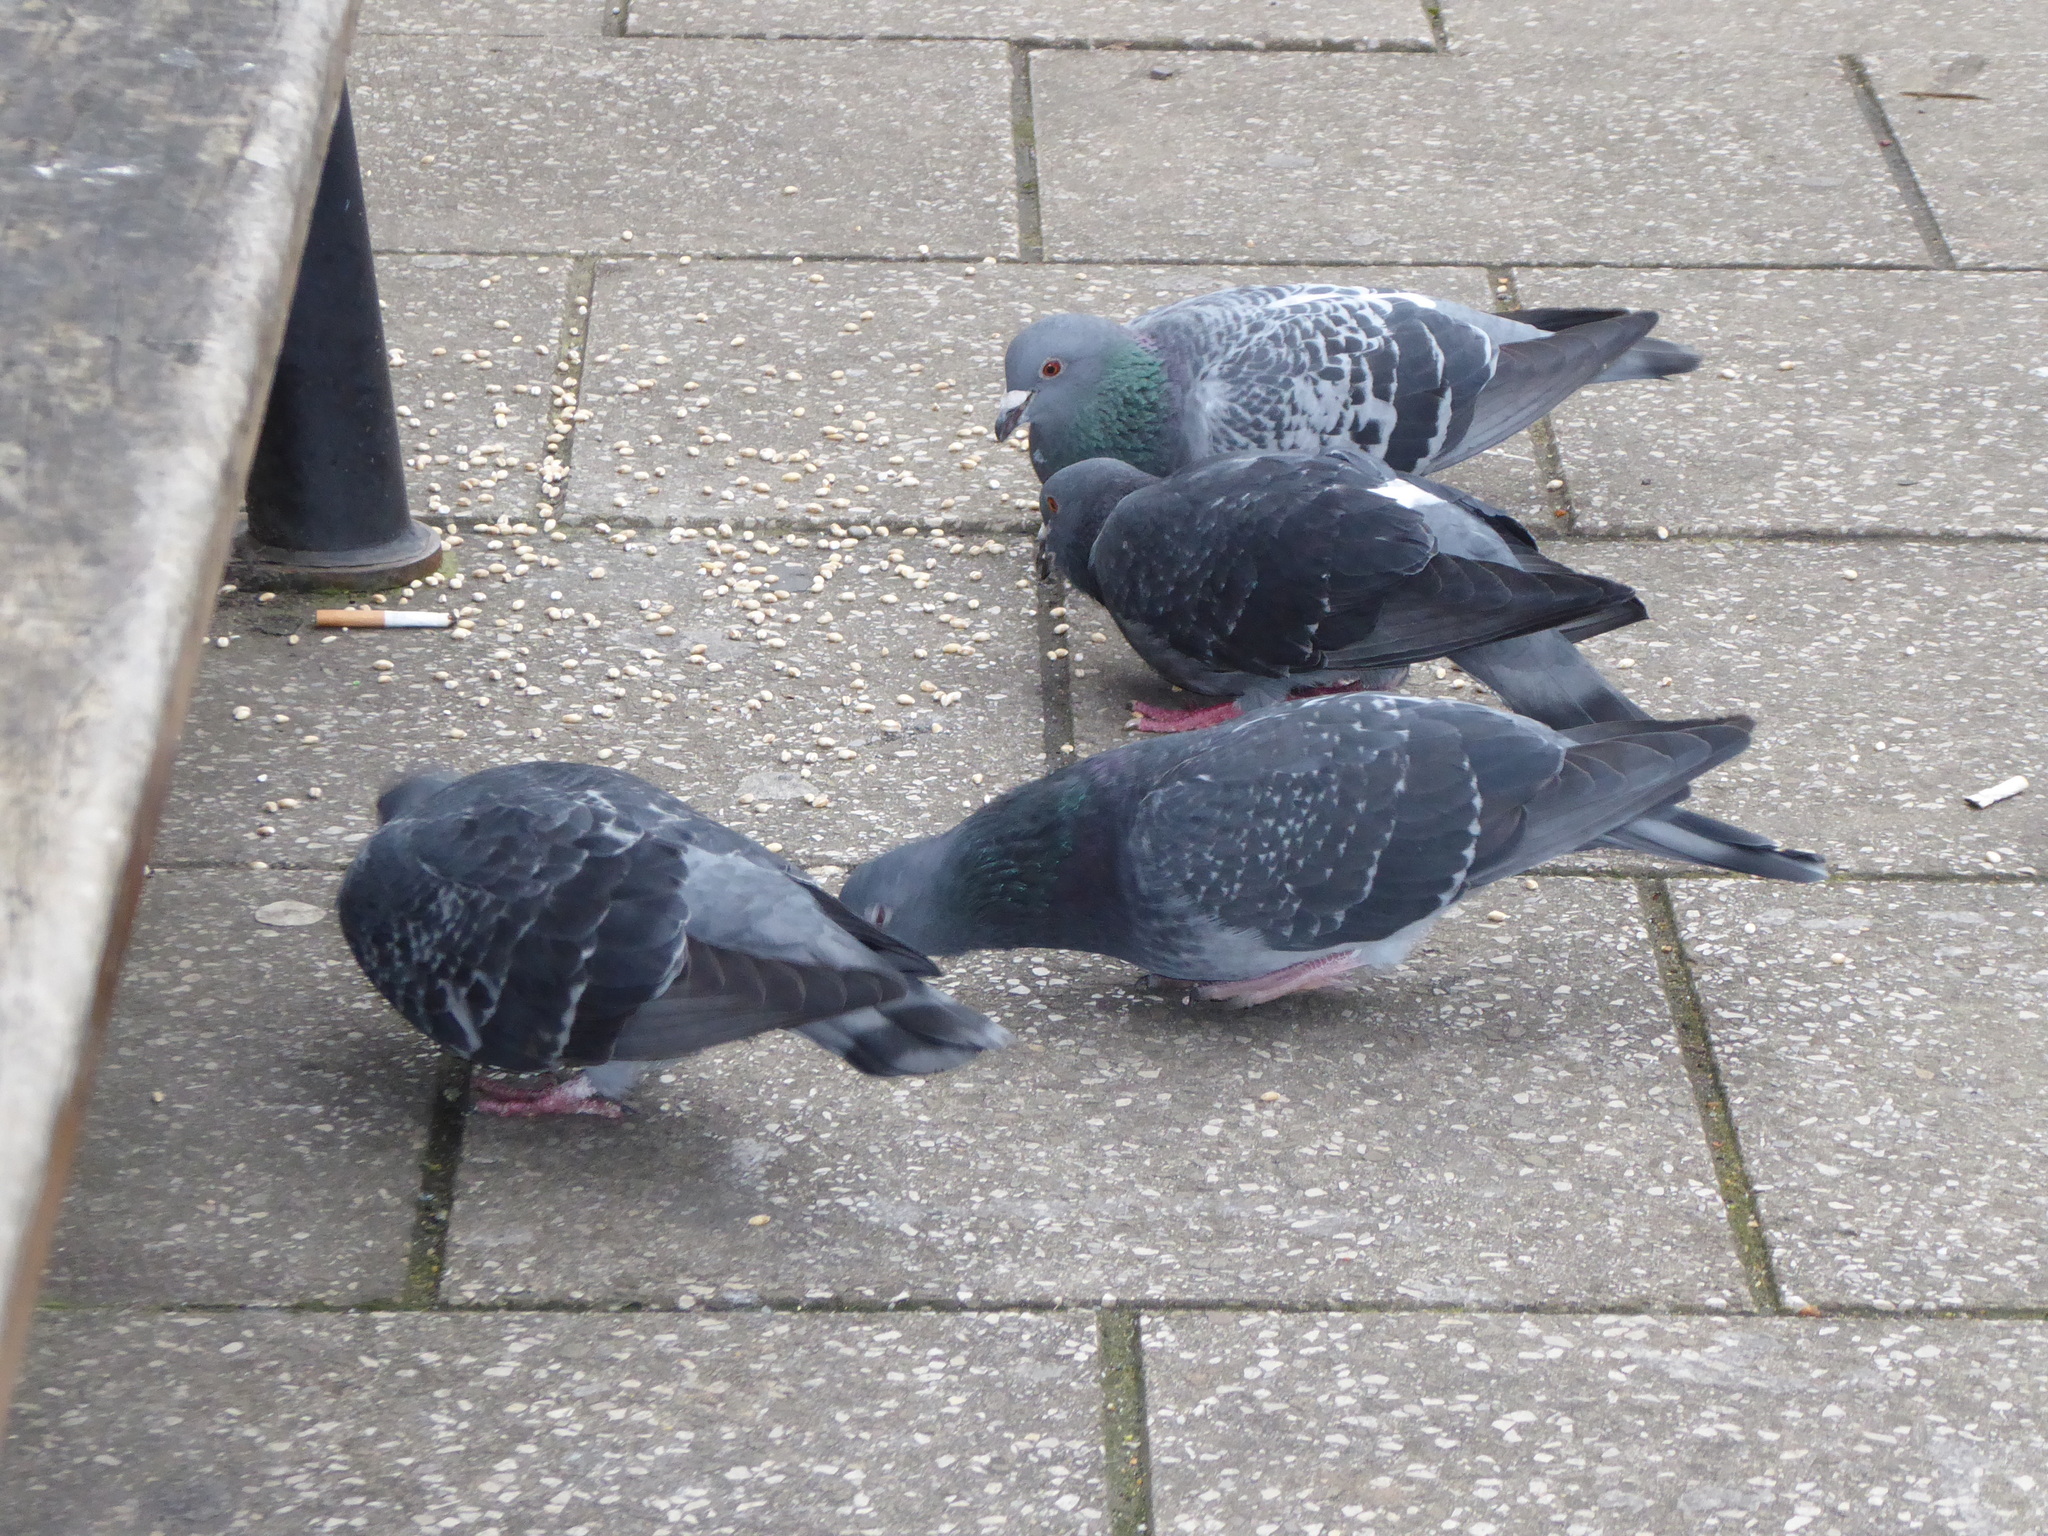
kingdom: Animalia
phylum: Chordata
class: Aves
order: Columbiformes
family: Columbidae
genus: Columba
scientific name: Columba livia
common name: Rock pigeon
